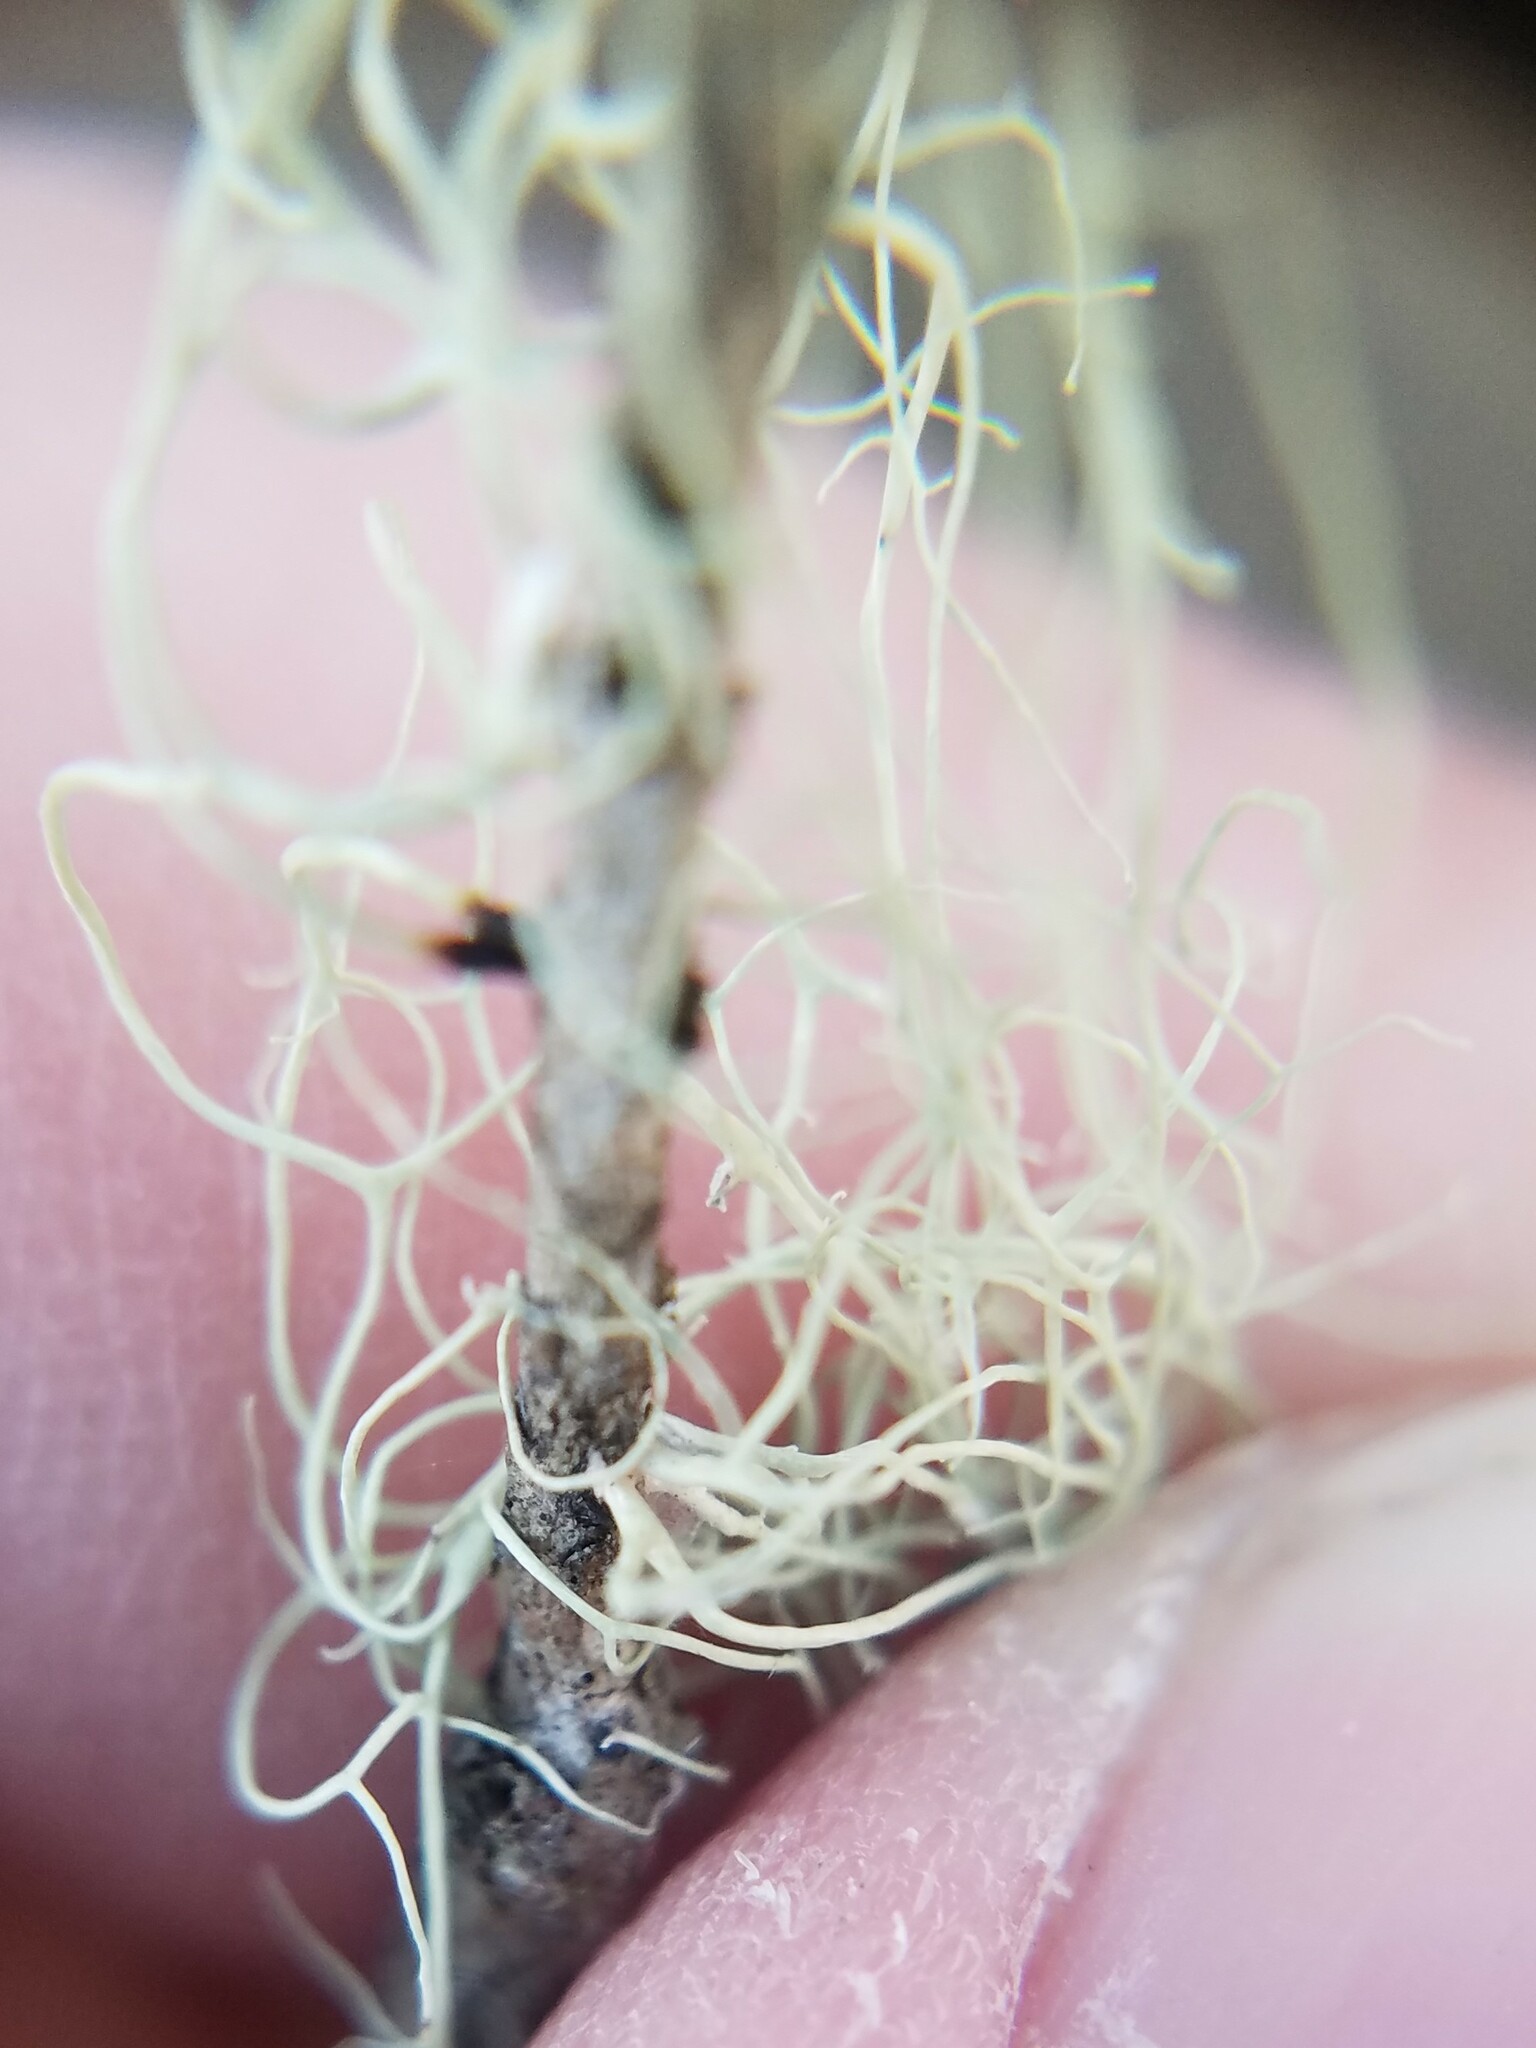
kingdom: Fungi
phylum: Ascomycota
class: Lecanoromycetes
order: Lecanorales
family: Ramalinaceae
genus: Ramalina
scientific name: Ramalina usnea
